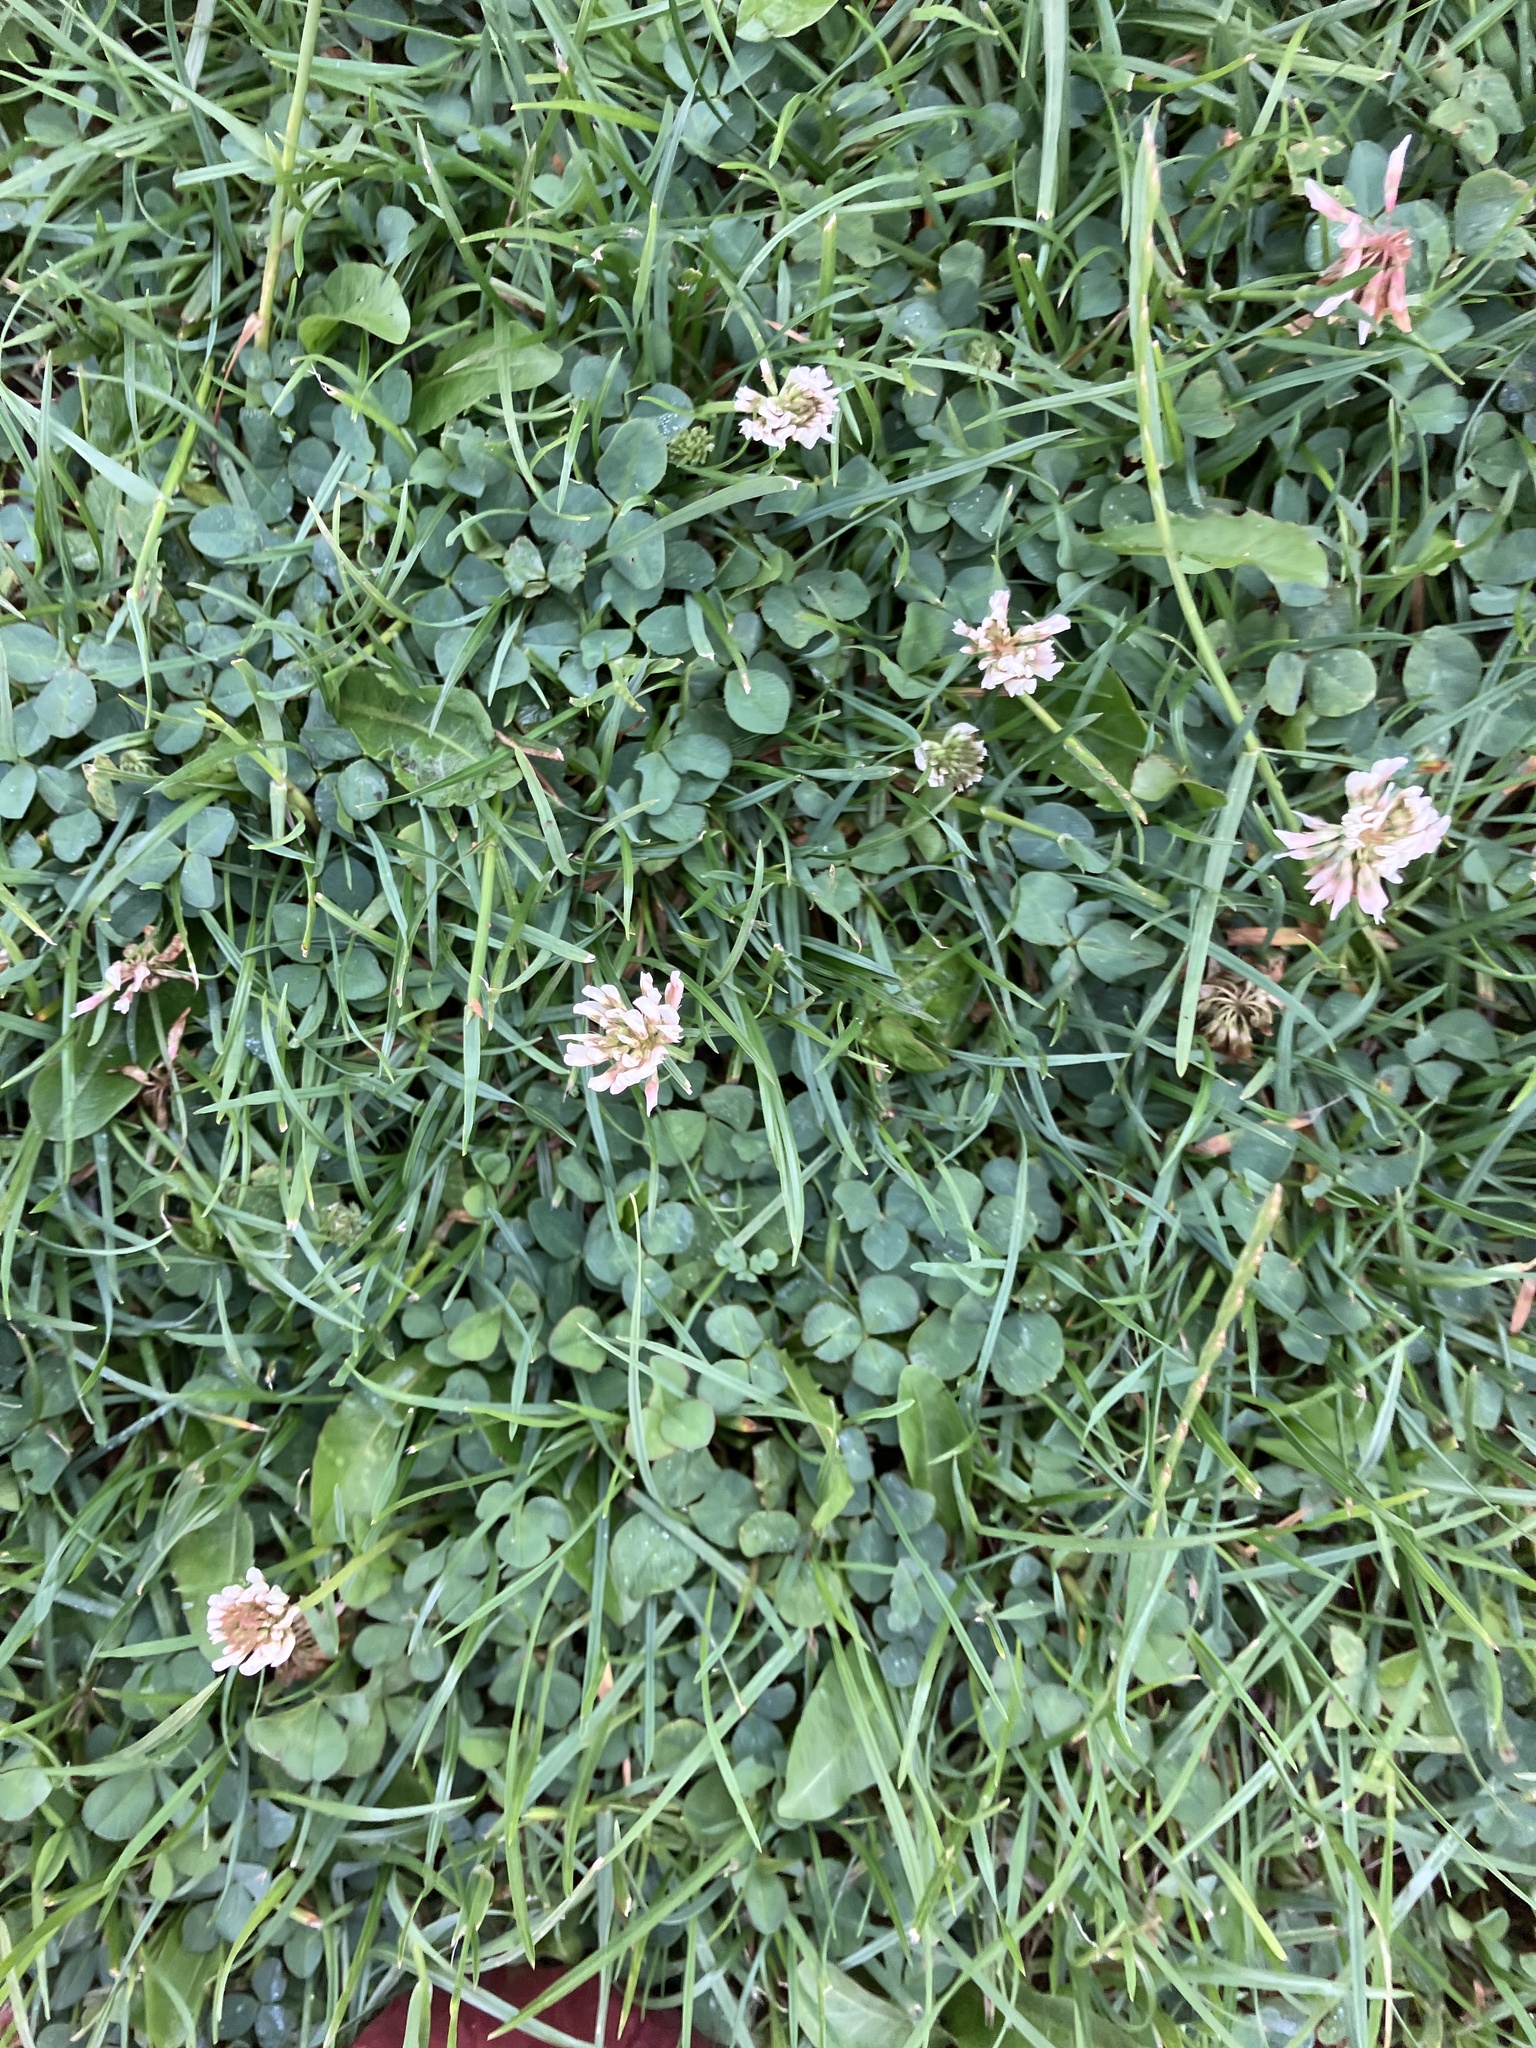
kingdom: Plantae
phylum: Tracheophyta
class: Magnoliopsida
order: Fabales
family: Fabaceae
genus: Trifolium
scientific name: Trifolium repens
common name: White clover
